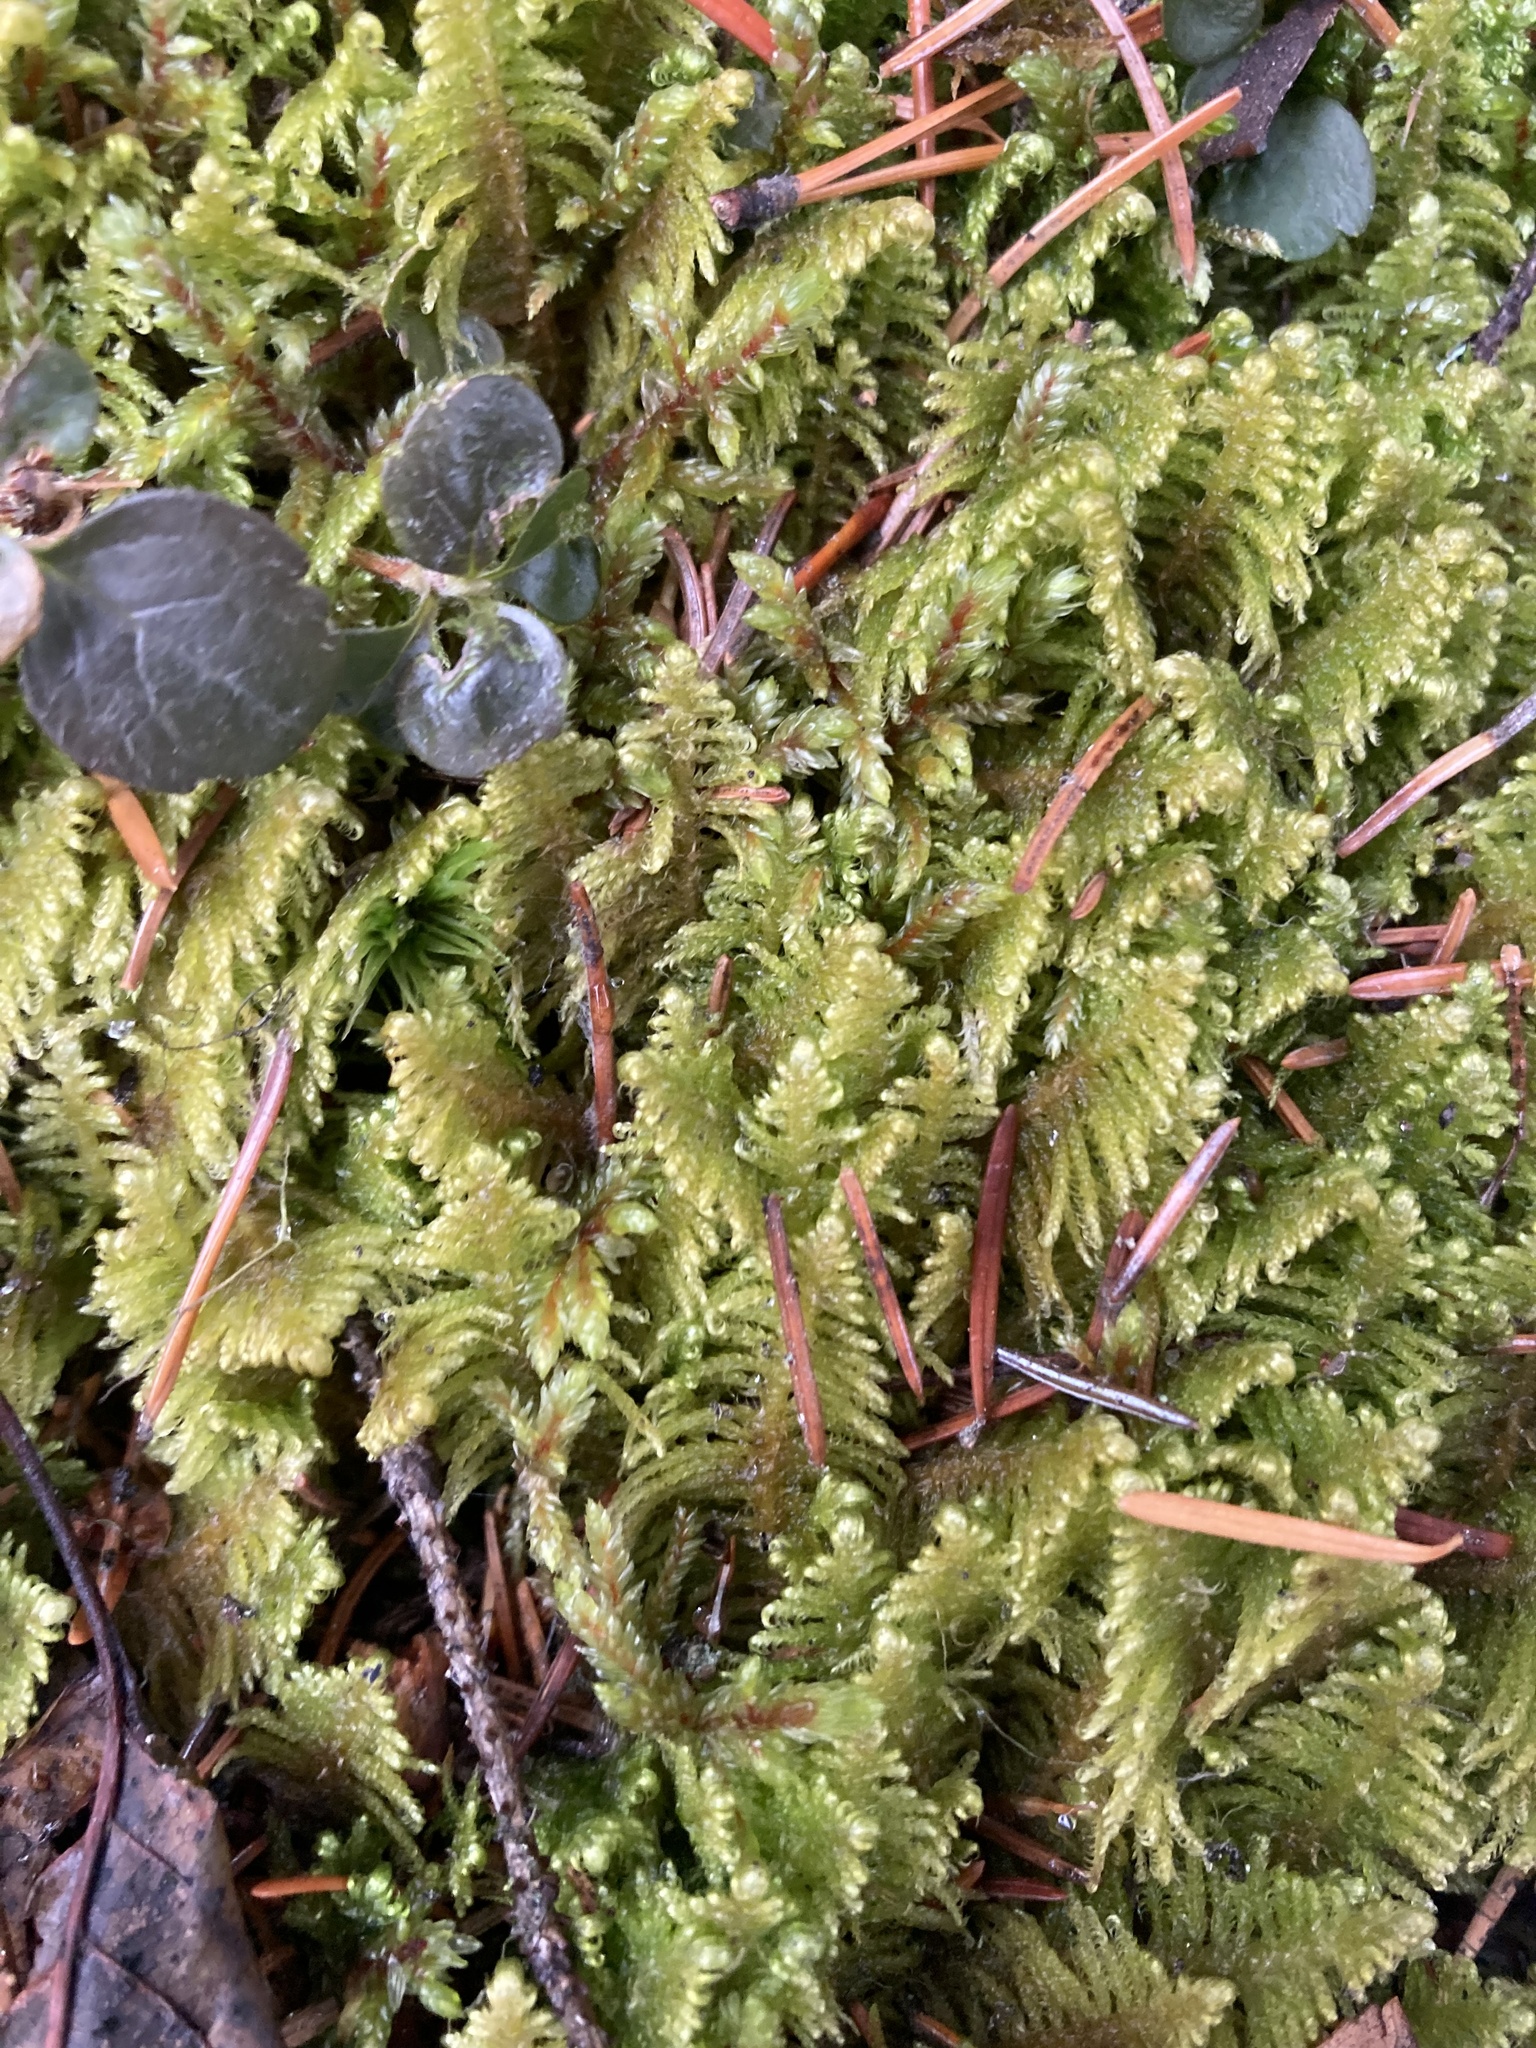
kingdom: Plantae
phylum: Bryophyta
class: Bryopsida
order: Hypnales
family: Pylaisiaceae
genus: Ptilium
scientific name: Ptilium crista-castrensis
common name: Knight's plume moss
